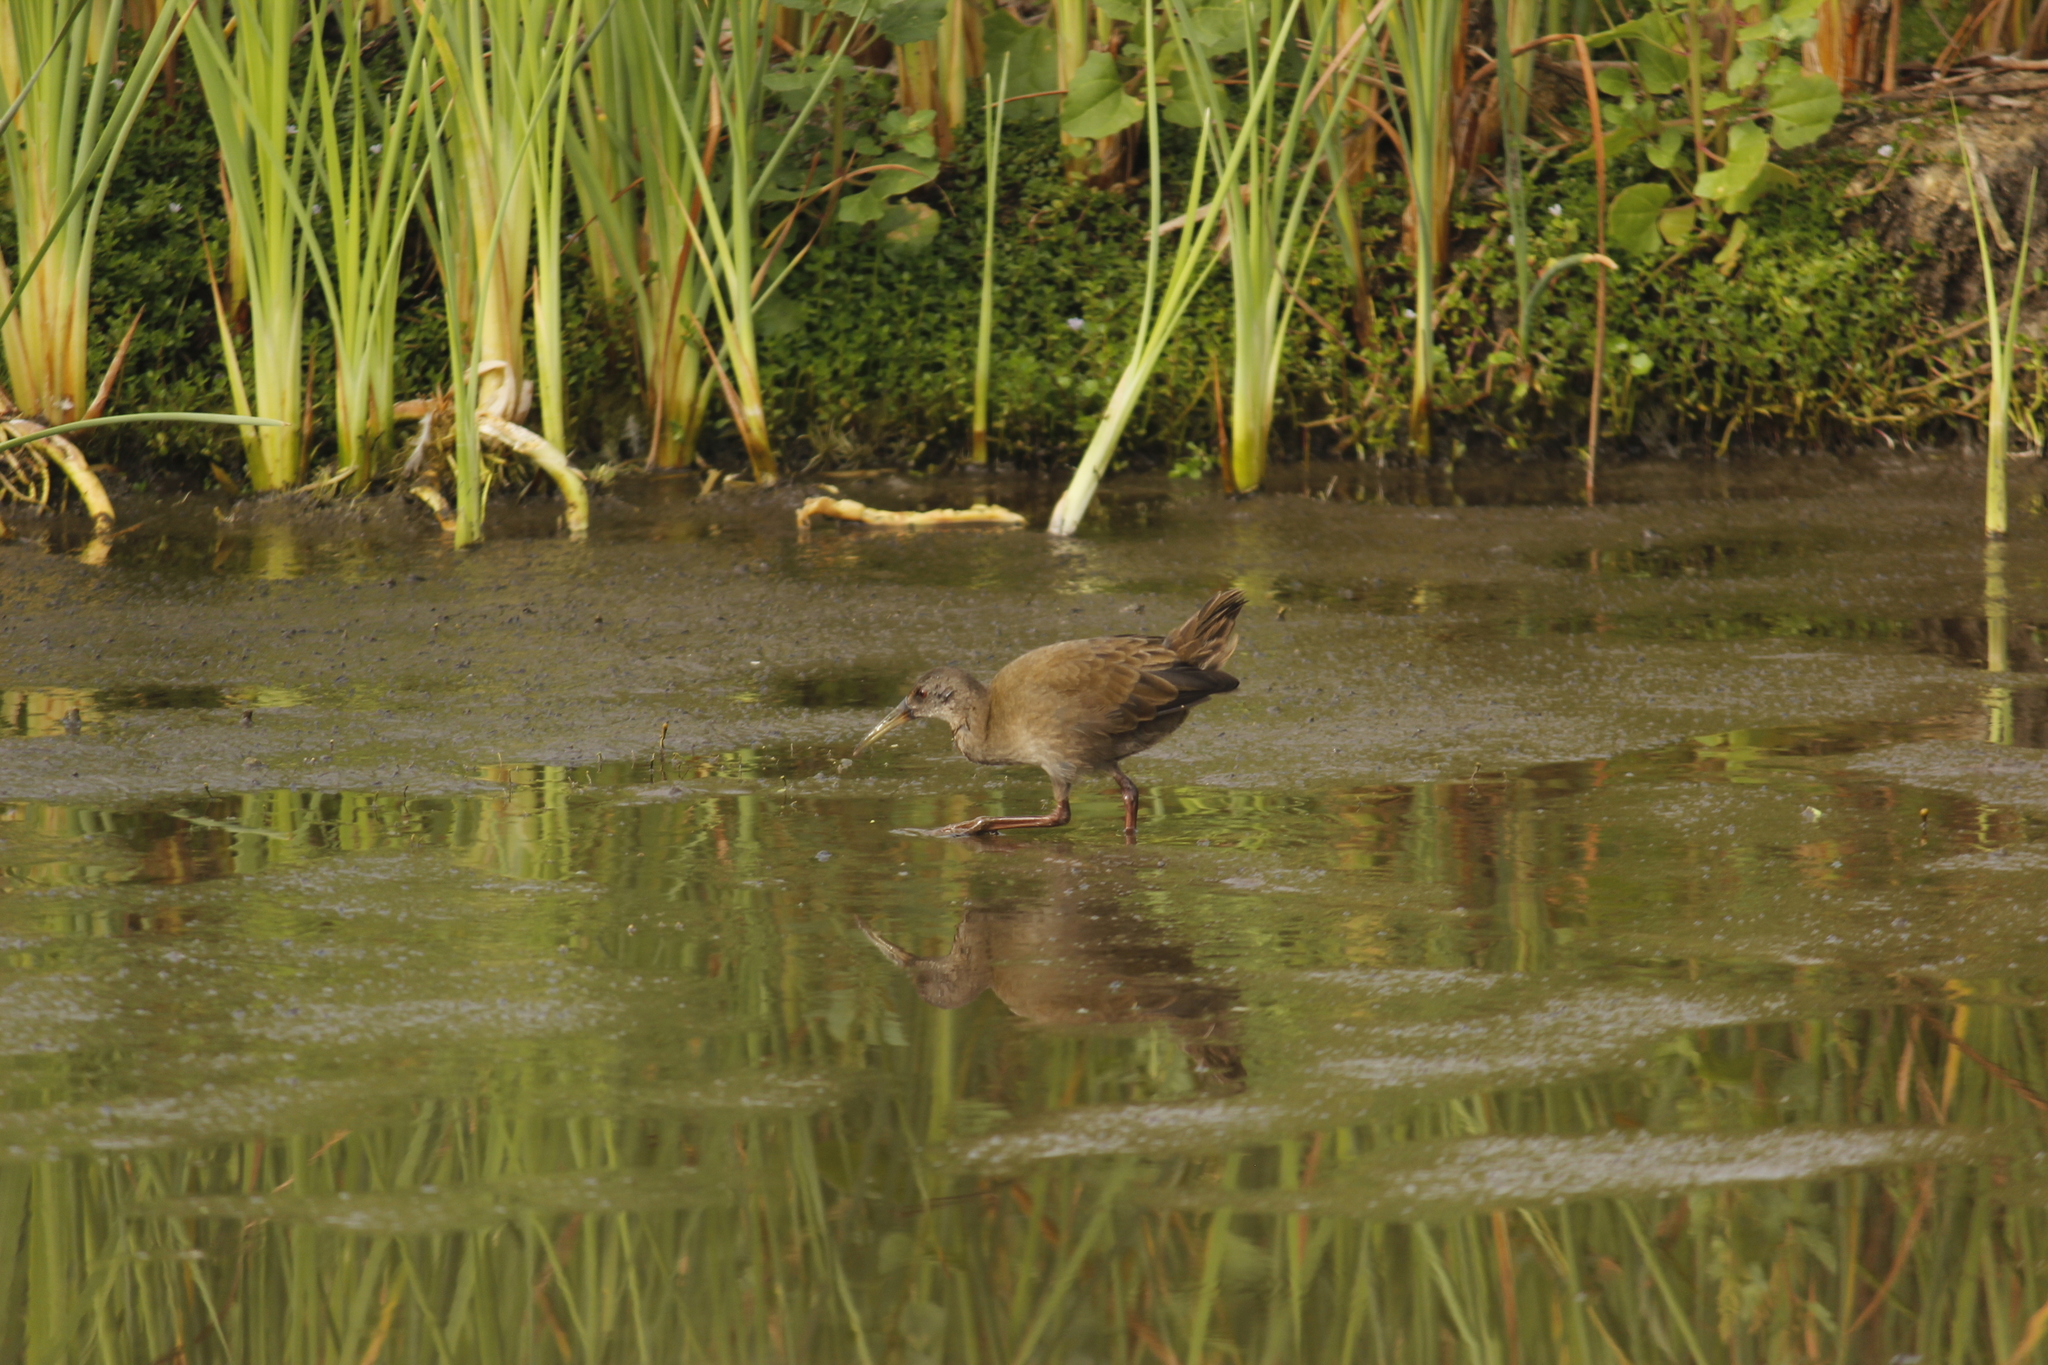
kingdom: Animalia
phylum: Chordata
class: Aves
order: Gruiformes
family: Rallidae
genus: Pardirallus
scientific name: Pardirallus sanguinolentus
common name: Plumbeous rail
